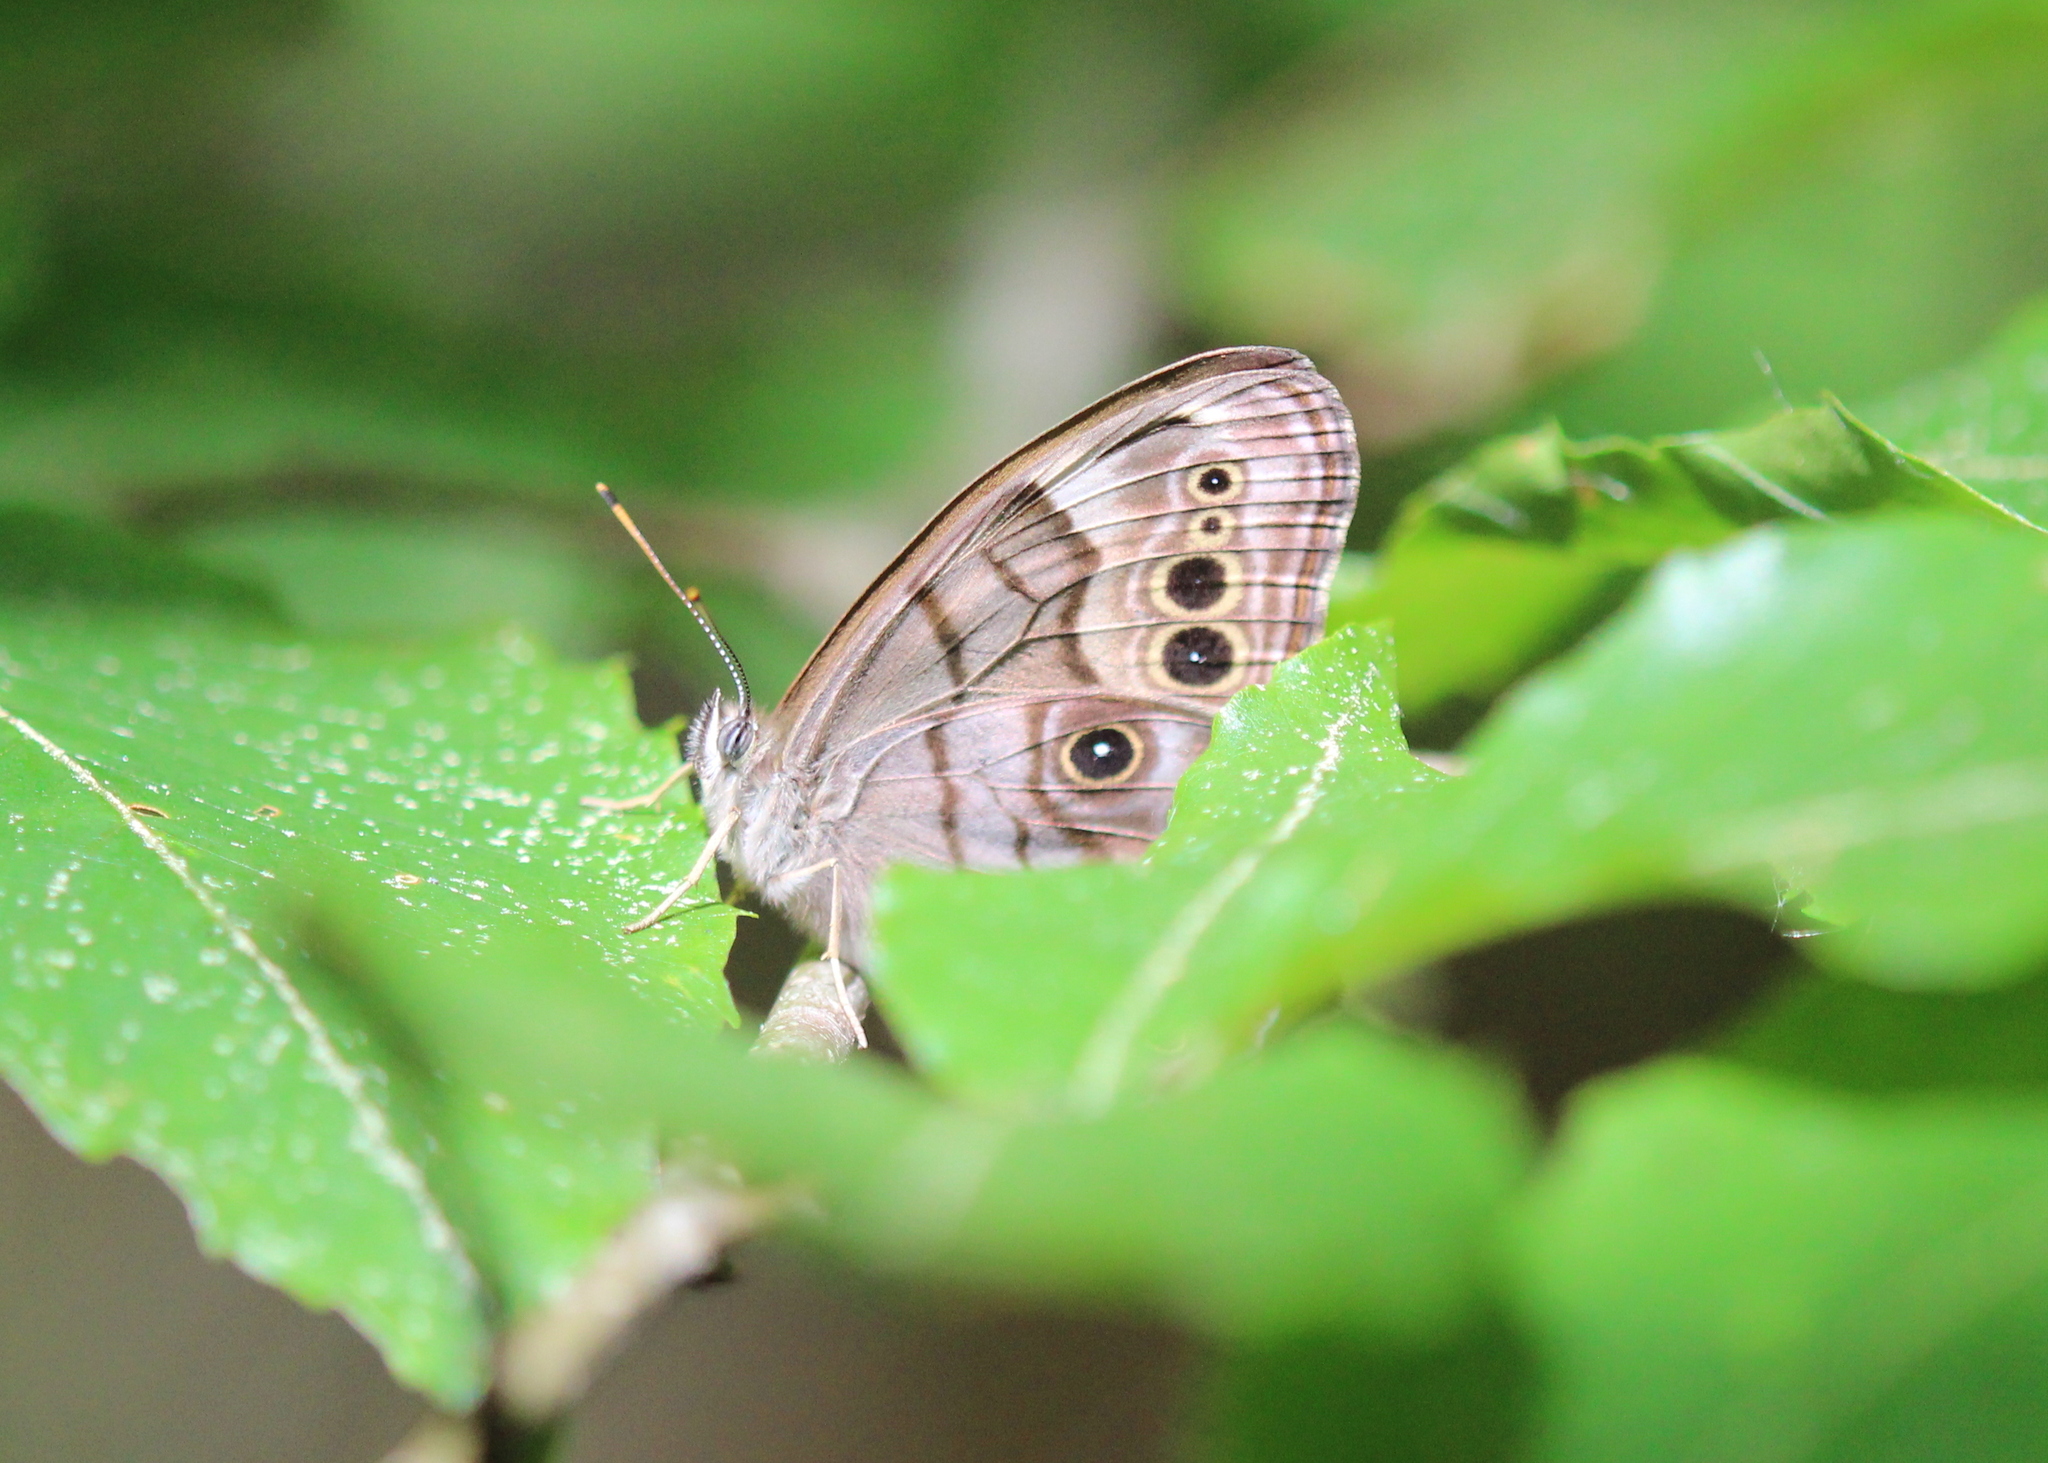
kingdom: Animalia
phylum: Arthropoda
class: Insecta
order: Lepidoptera
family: Nymphalidae
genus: Lethe
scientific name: Lethe anthedon
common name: Northern pearly-eye
